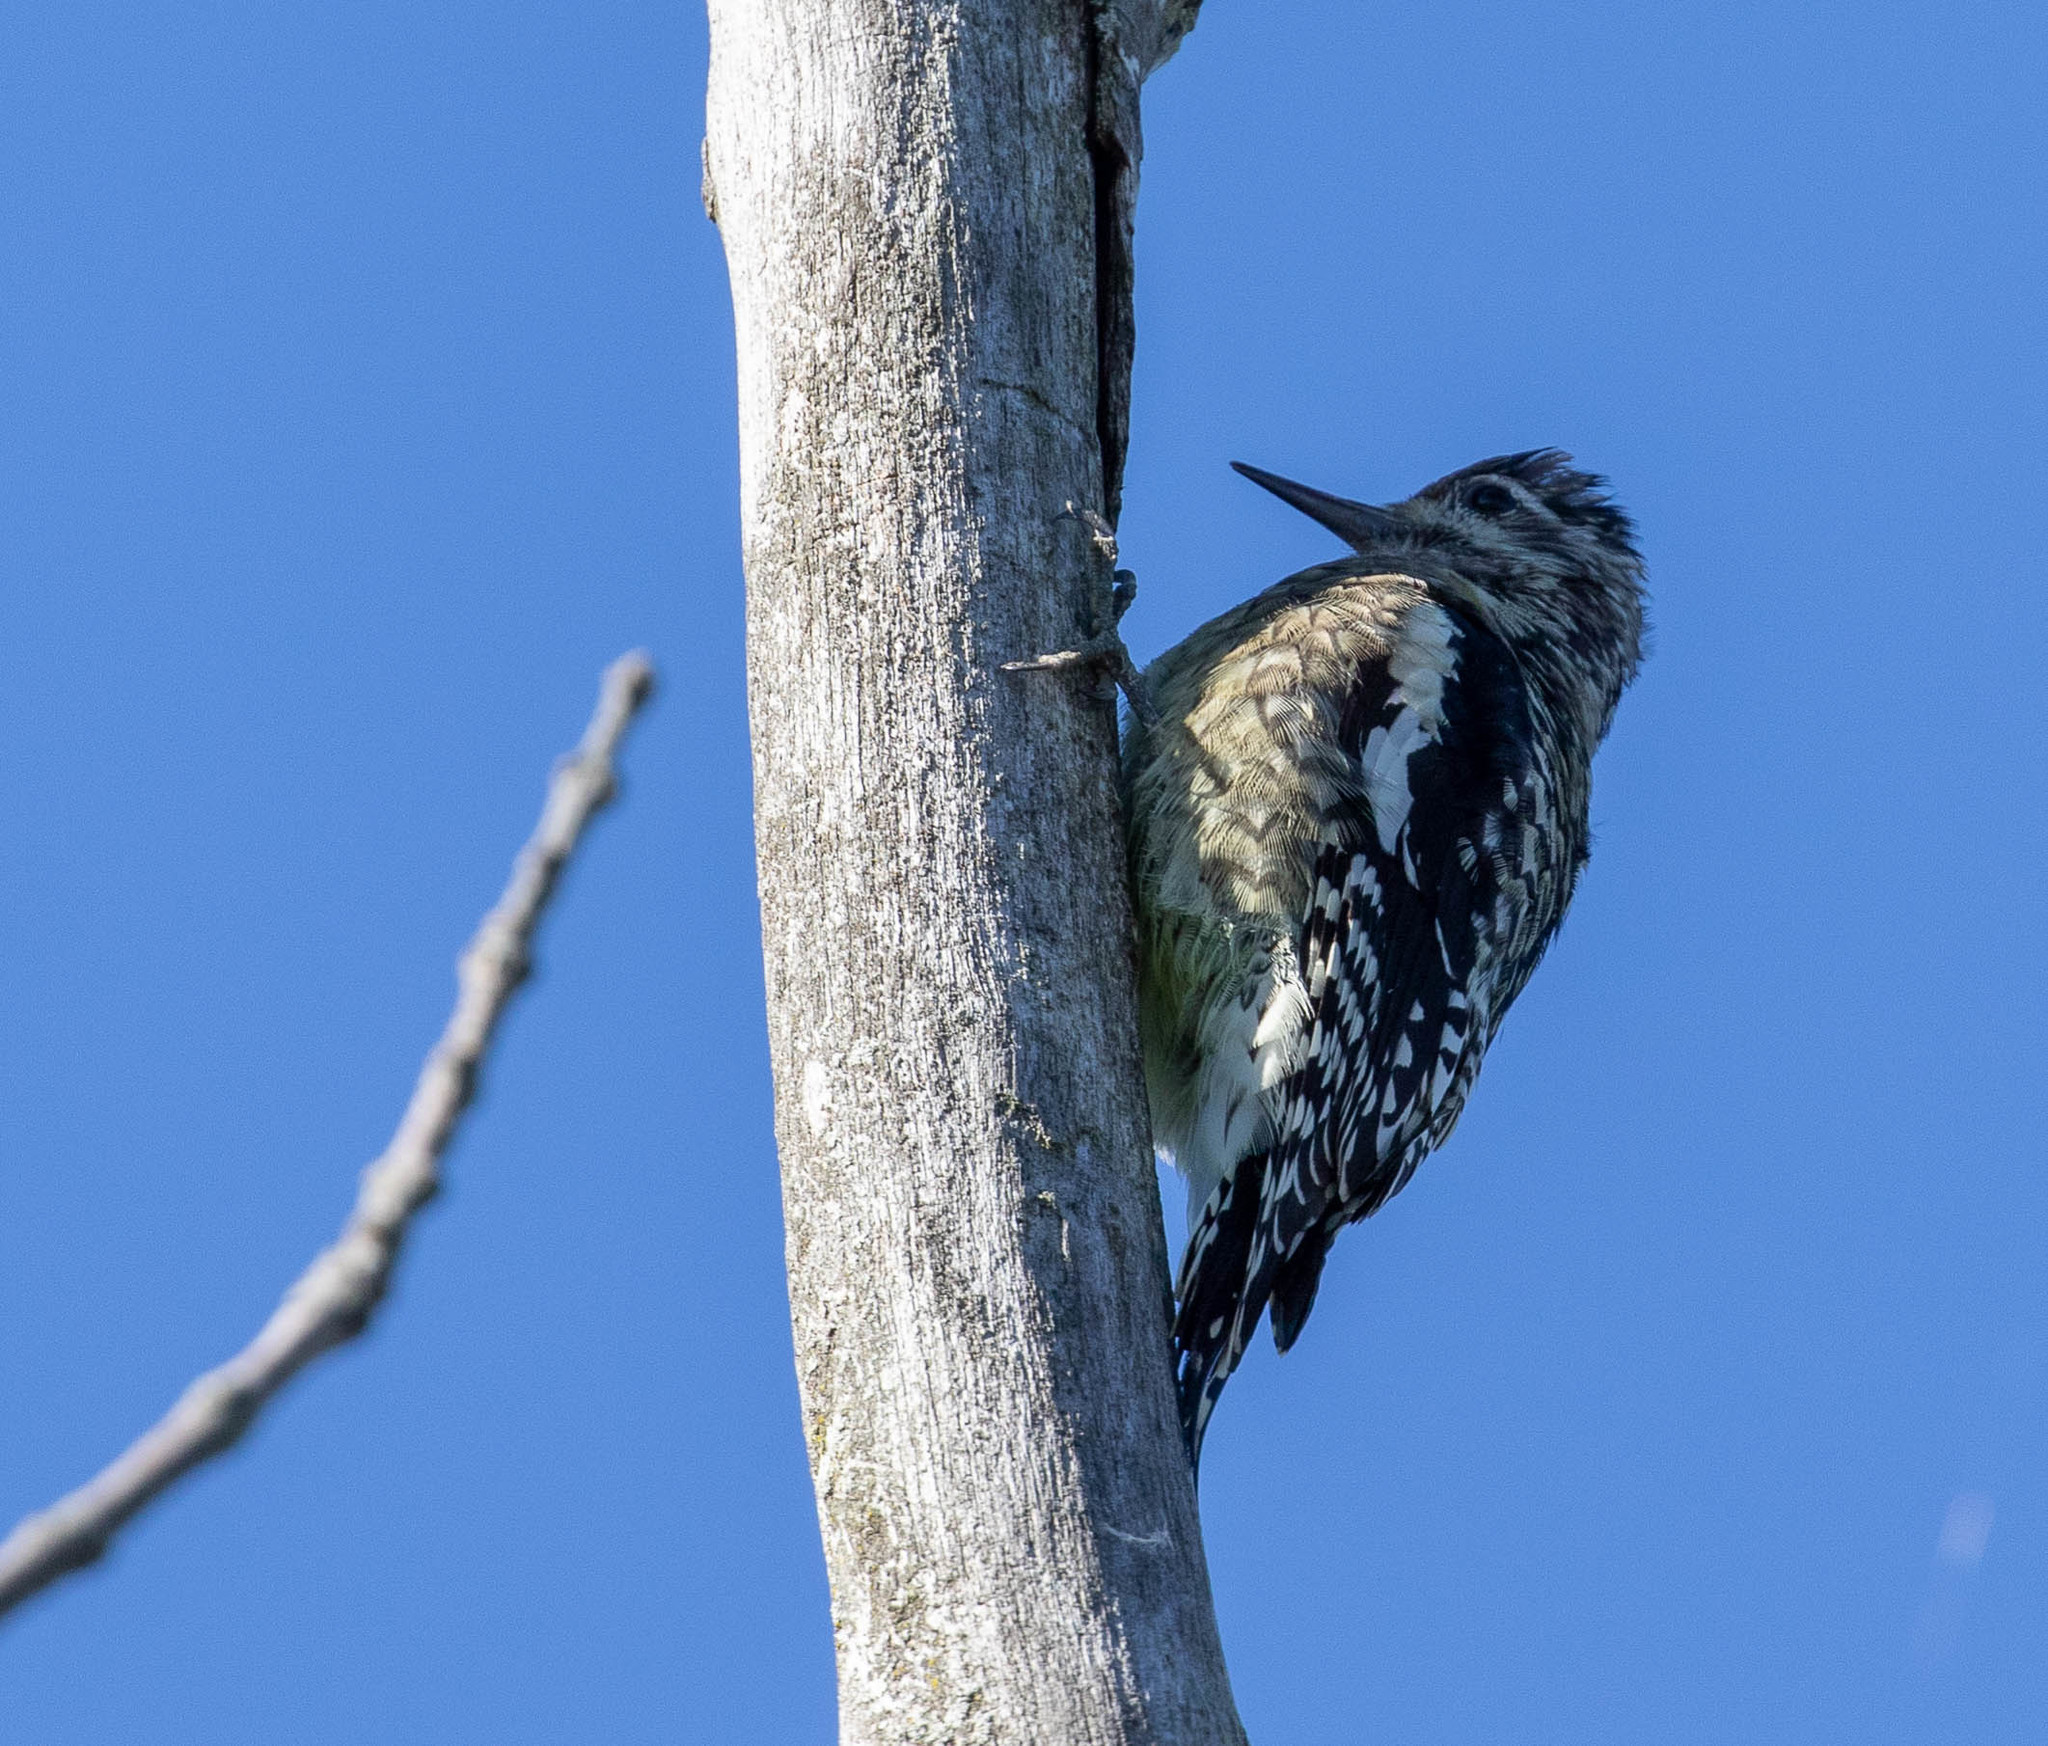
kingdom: Animalia
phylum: Chordata
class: Aves
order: Piciformes
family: Picidae
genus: Sphyrapicus
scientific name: Sphyrapicus varius
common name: Yellow-bellied sapsucker
